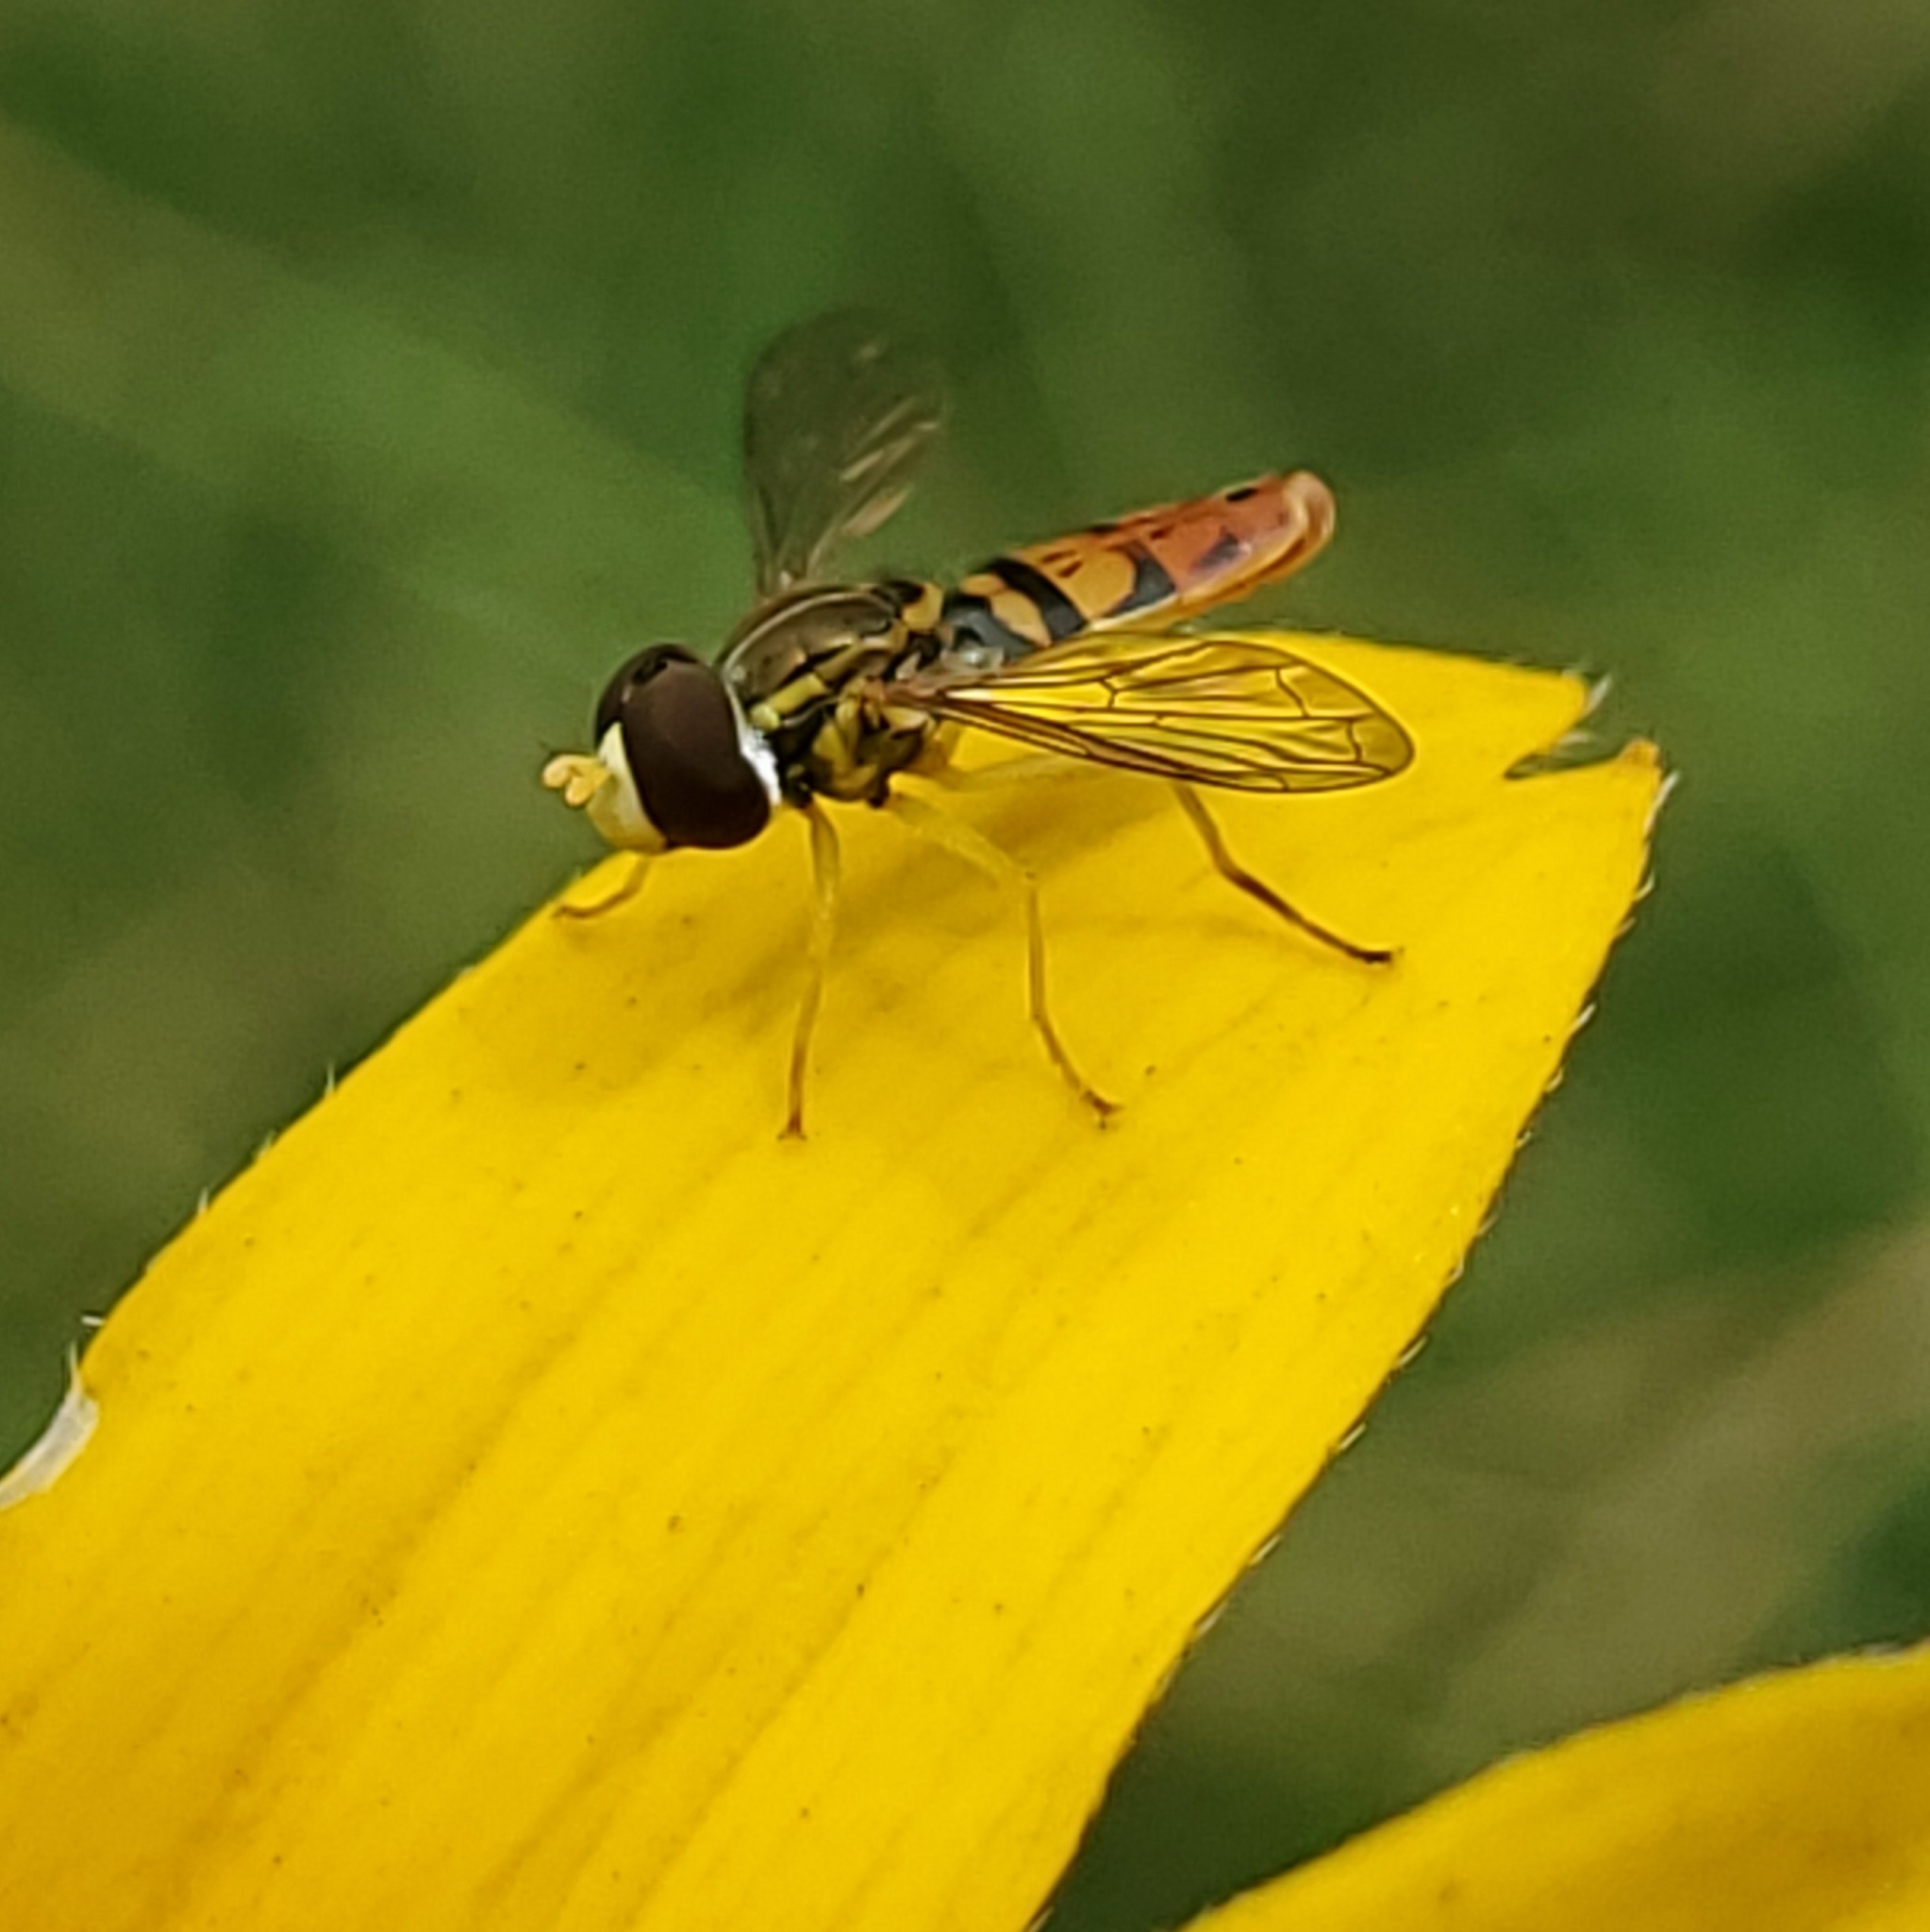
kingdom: Animalia
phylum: Arthropoda
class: Insecta
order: Diptera
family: Syrphidae
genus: Toxomerus
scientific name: Toxomerus marginatus
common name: Syrphid fly
